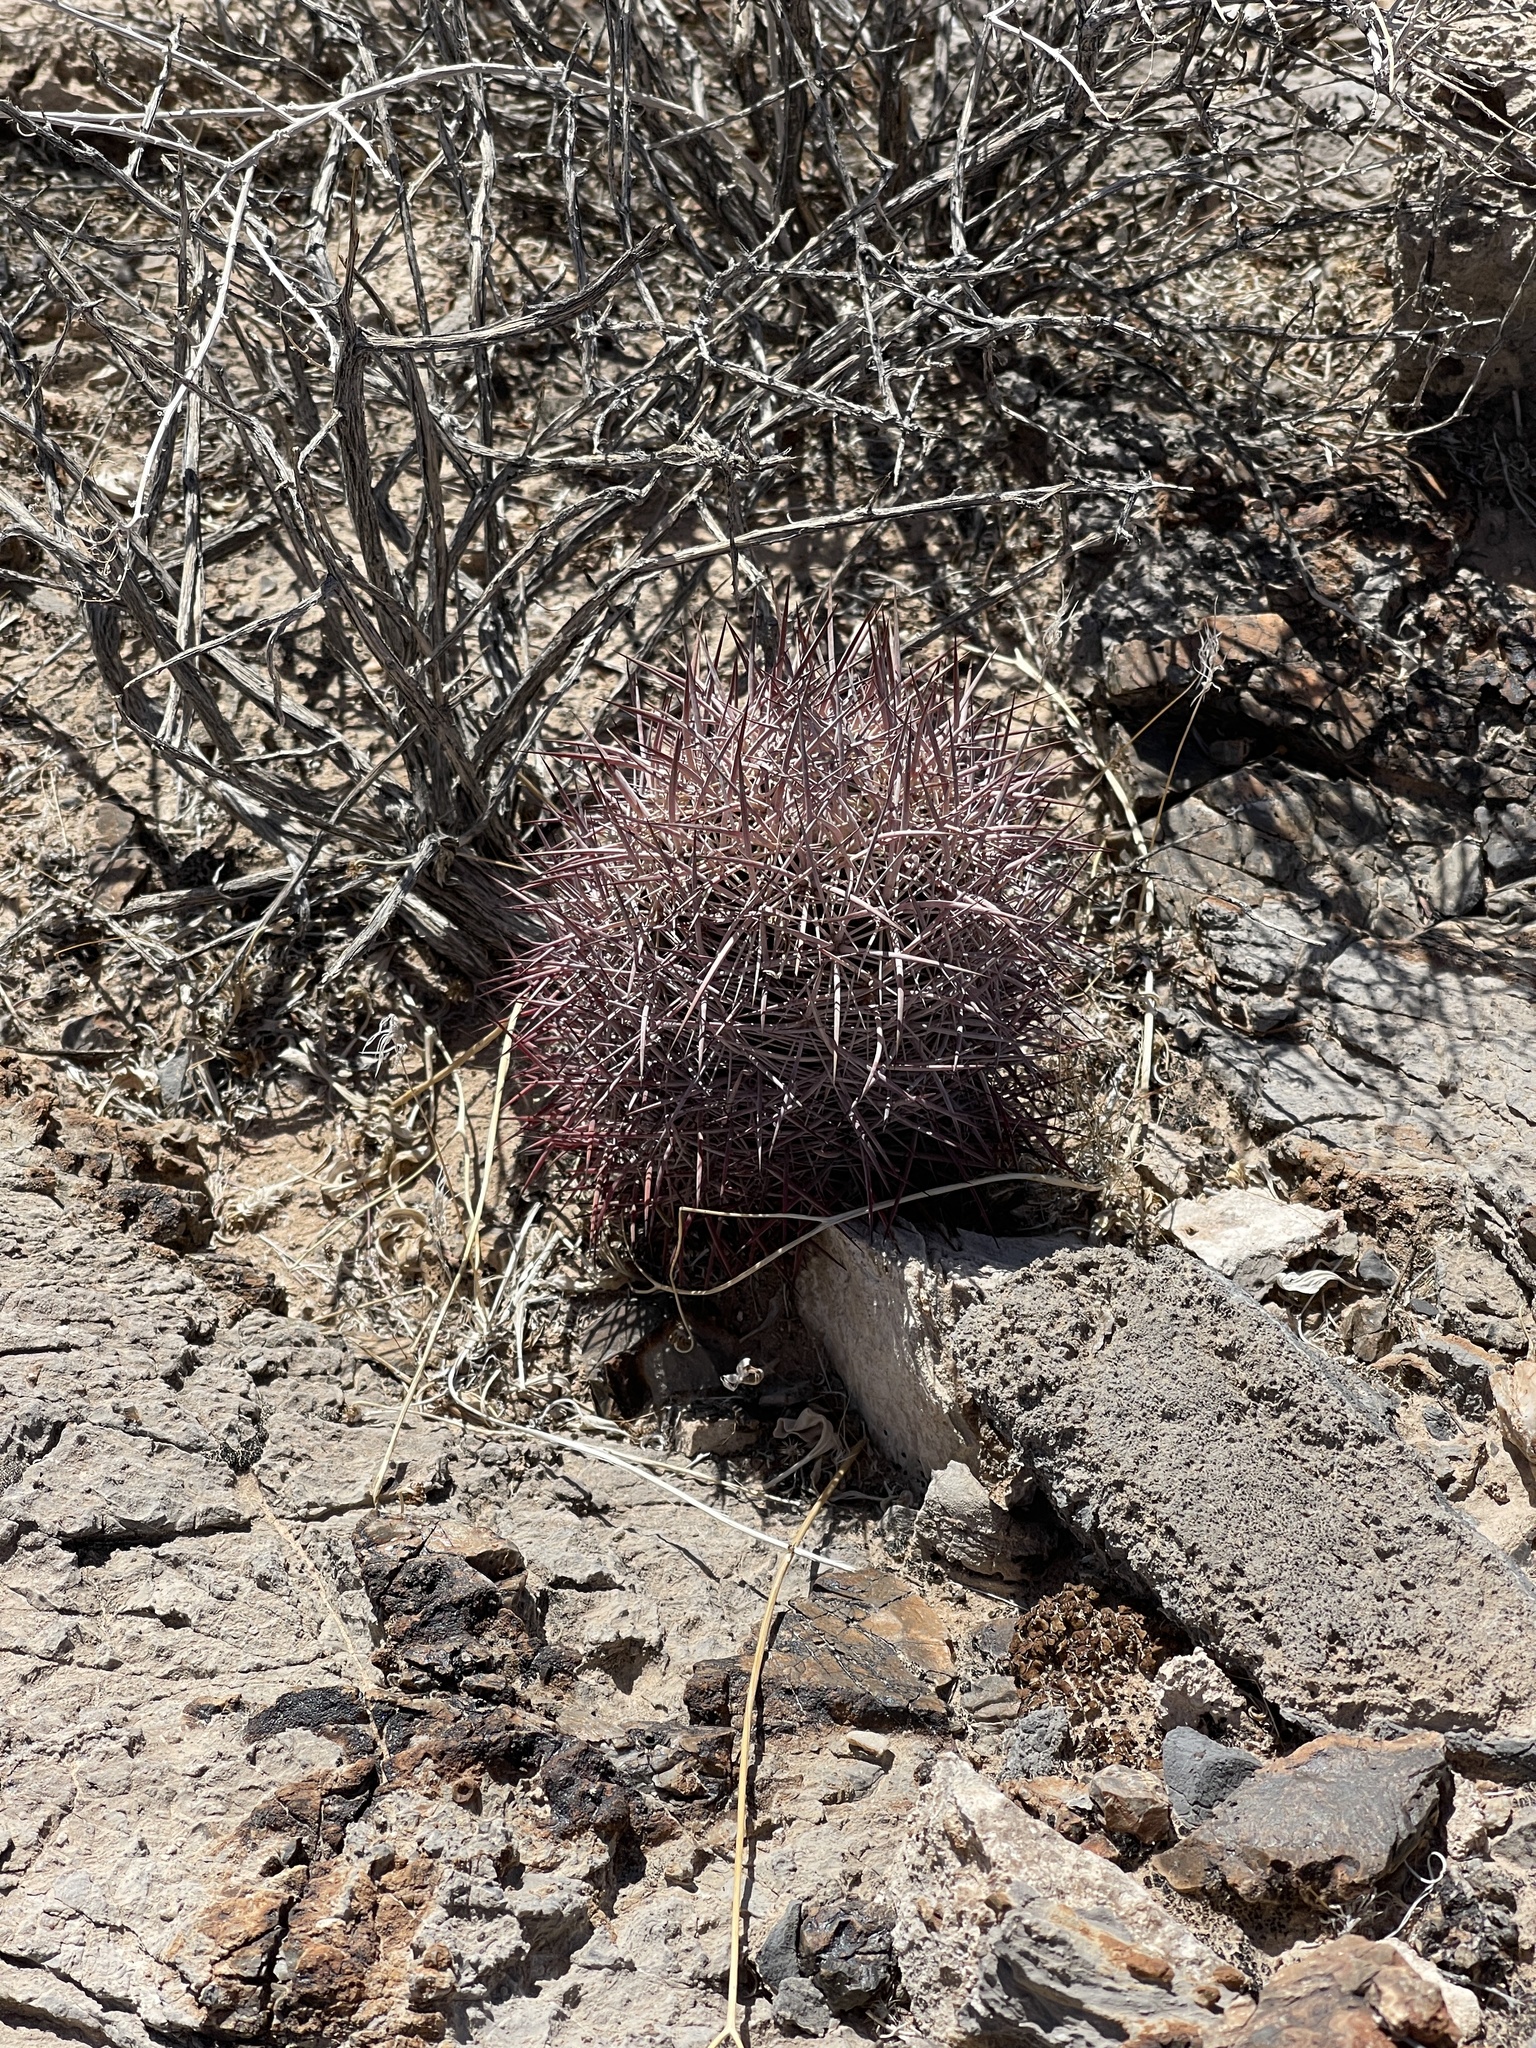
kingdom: Plantae
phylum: Tracheophyta
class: Magnoliopsida
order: Caryophyllales
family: Cactaceae
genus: Sclerocactus
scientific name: Sclerocactus johnsonii
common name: Eight-spine fishhook cactus
